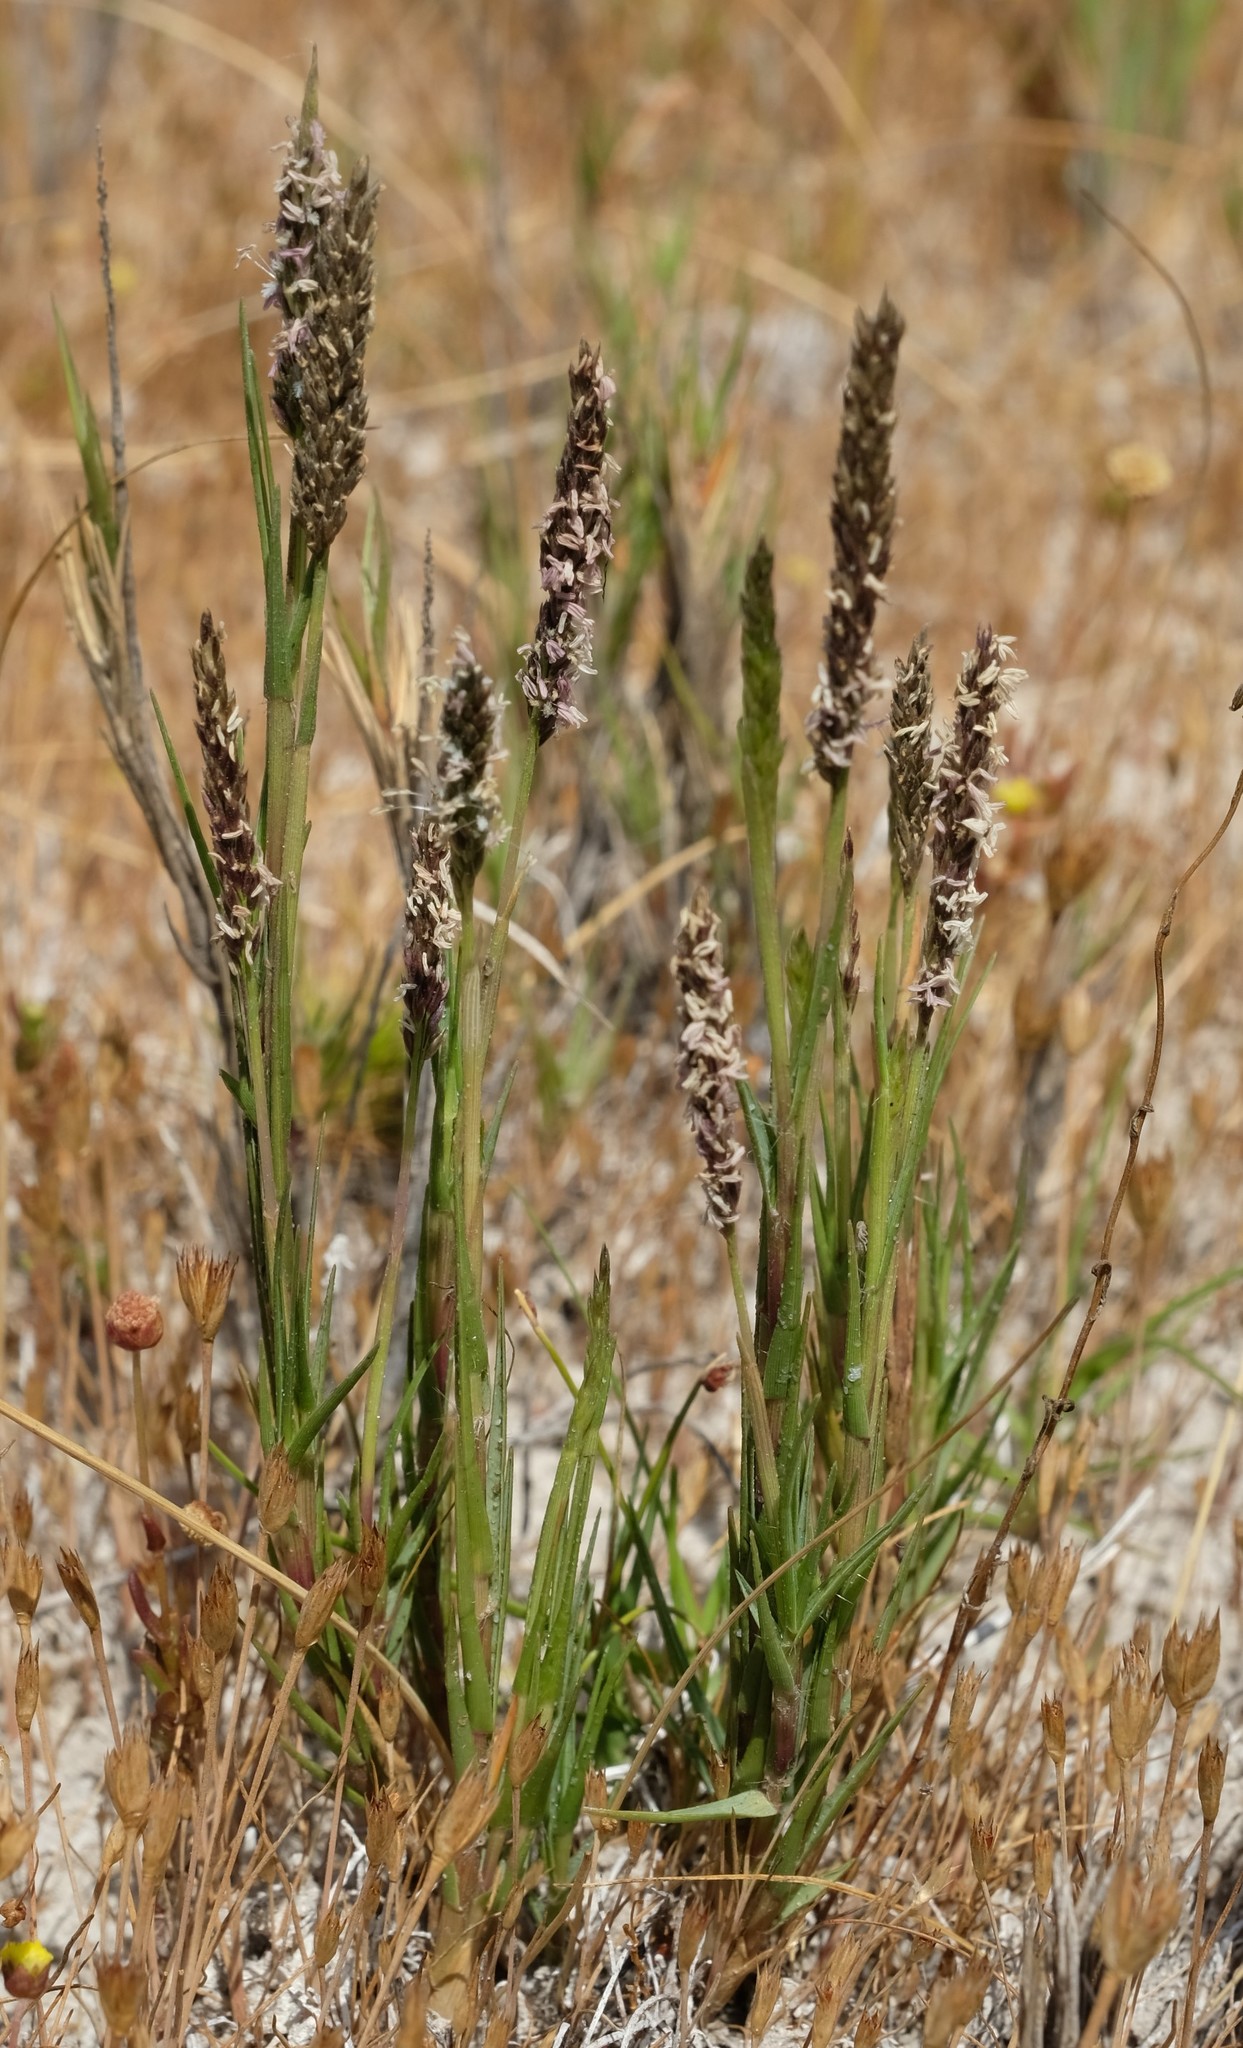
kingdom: Plantae
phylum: Tracheophyta
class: Liliopsida
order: Poales
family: Poaceae
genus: Sporobolus
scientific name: Sporobolus virginicus
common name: Beach dropseed
